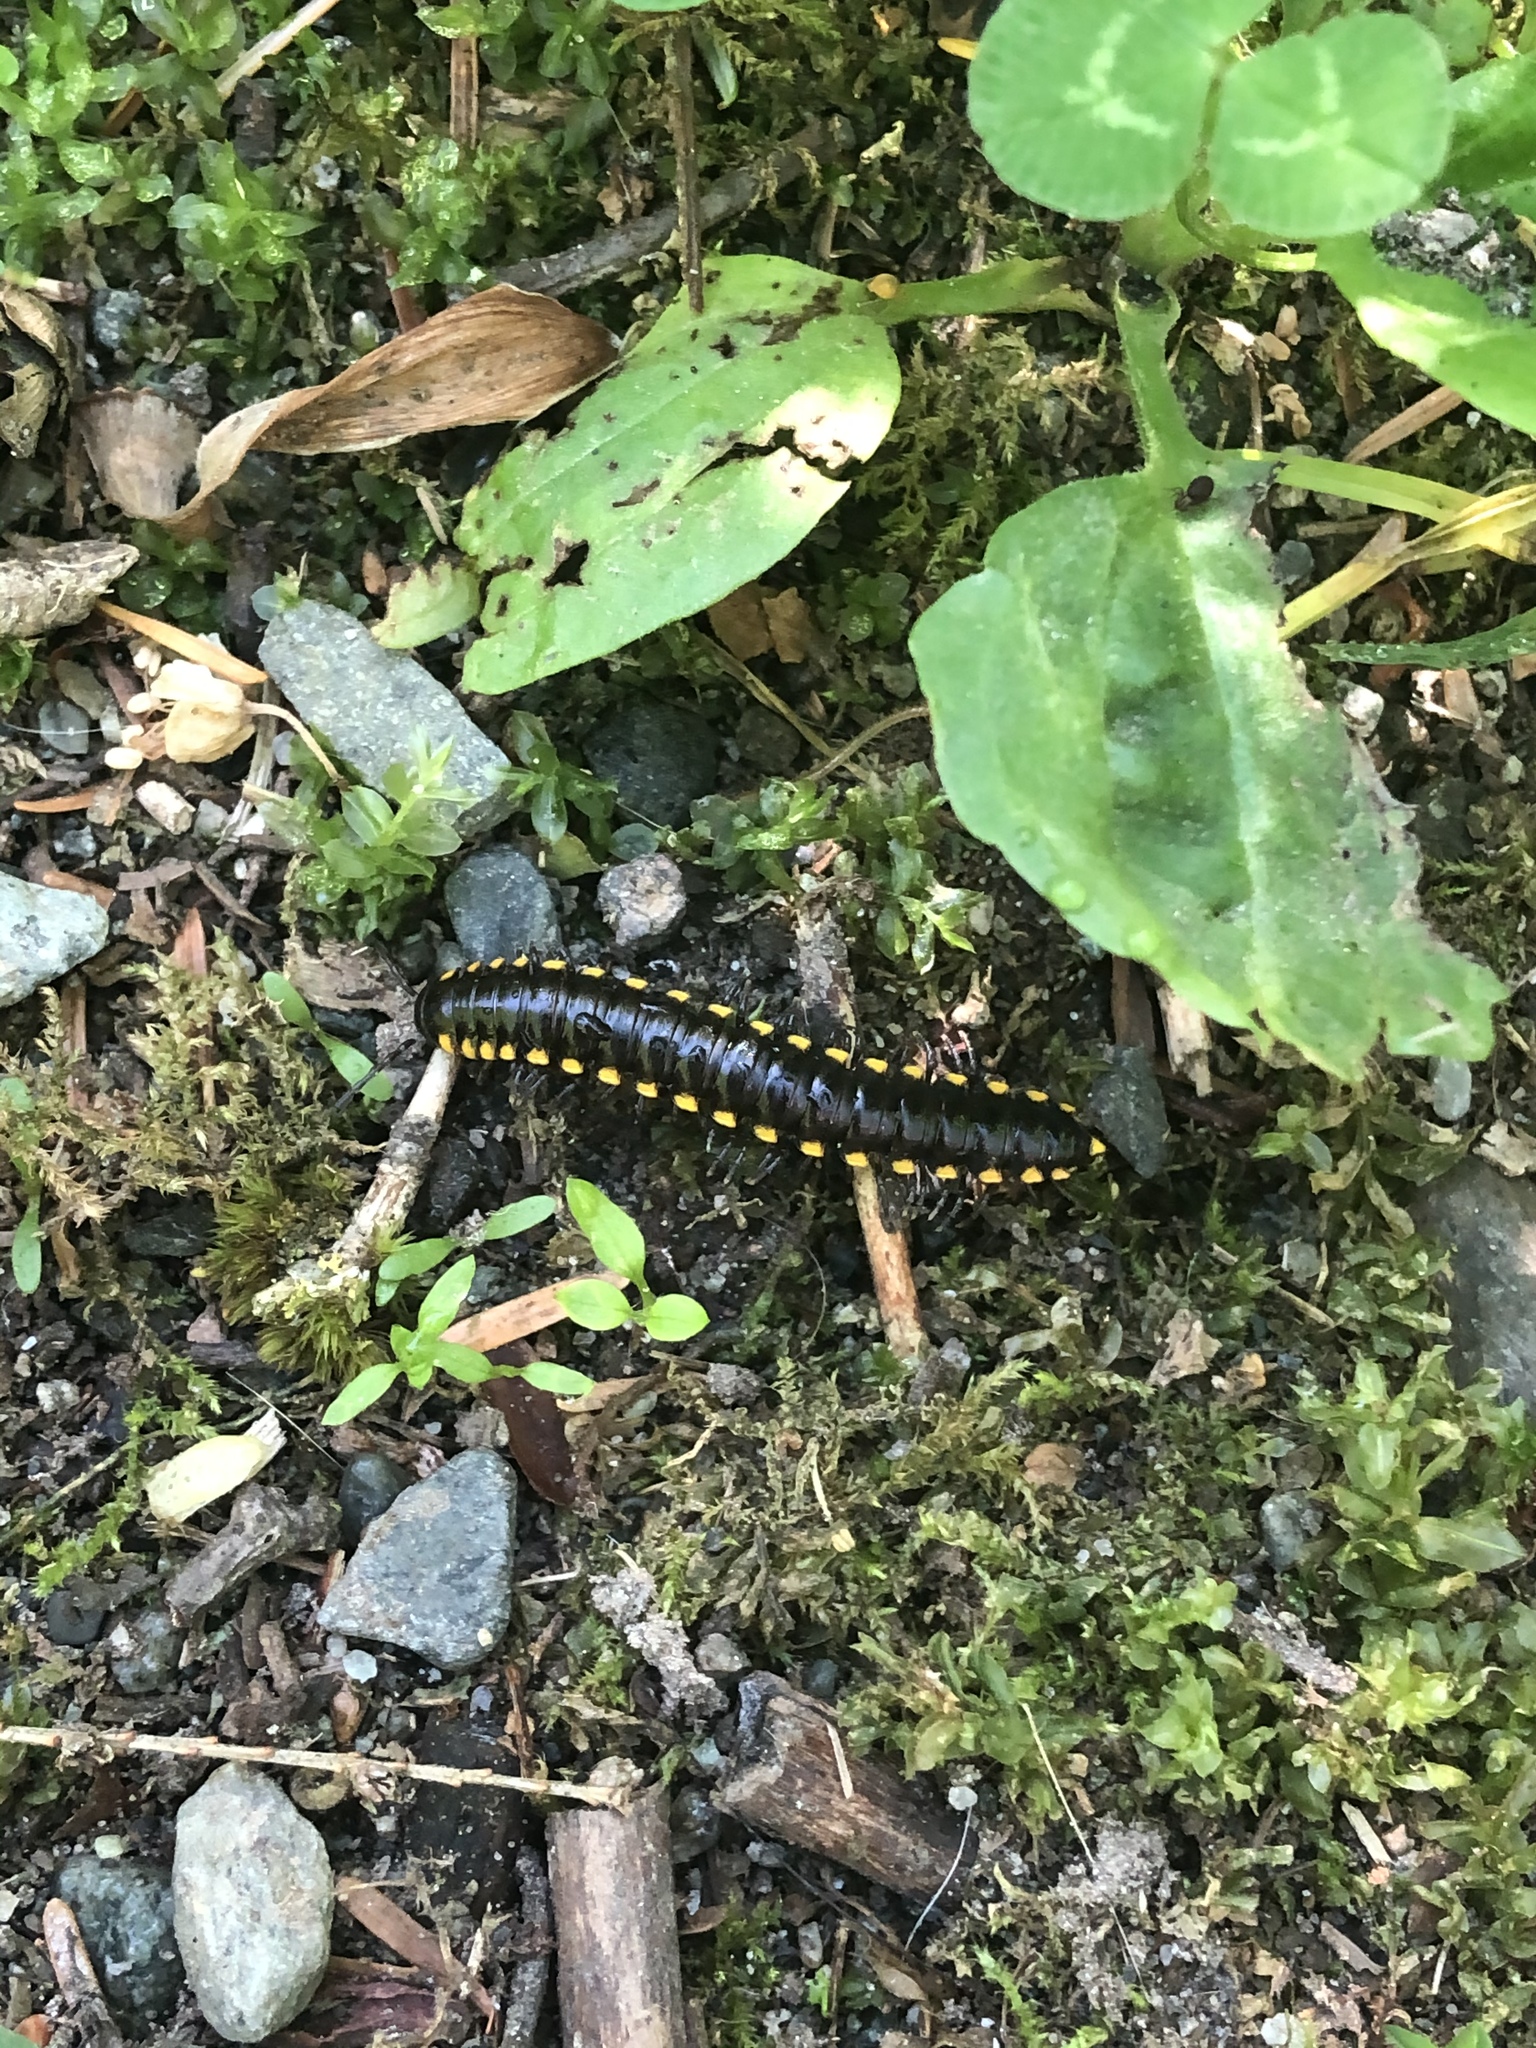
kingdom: Animalia
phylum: Arthropoda
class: Diplopoda
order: Polydesmida
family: Xystodesmidae
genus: Harpaphe
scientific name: Harpaphe haydeniana
